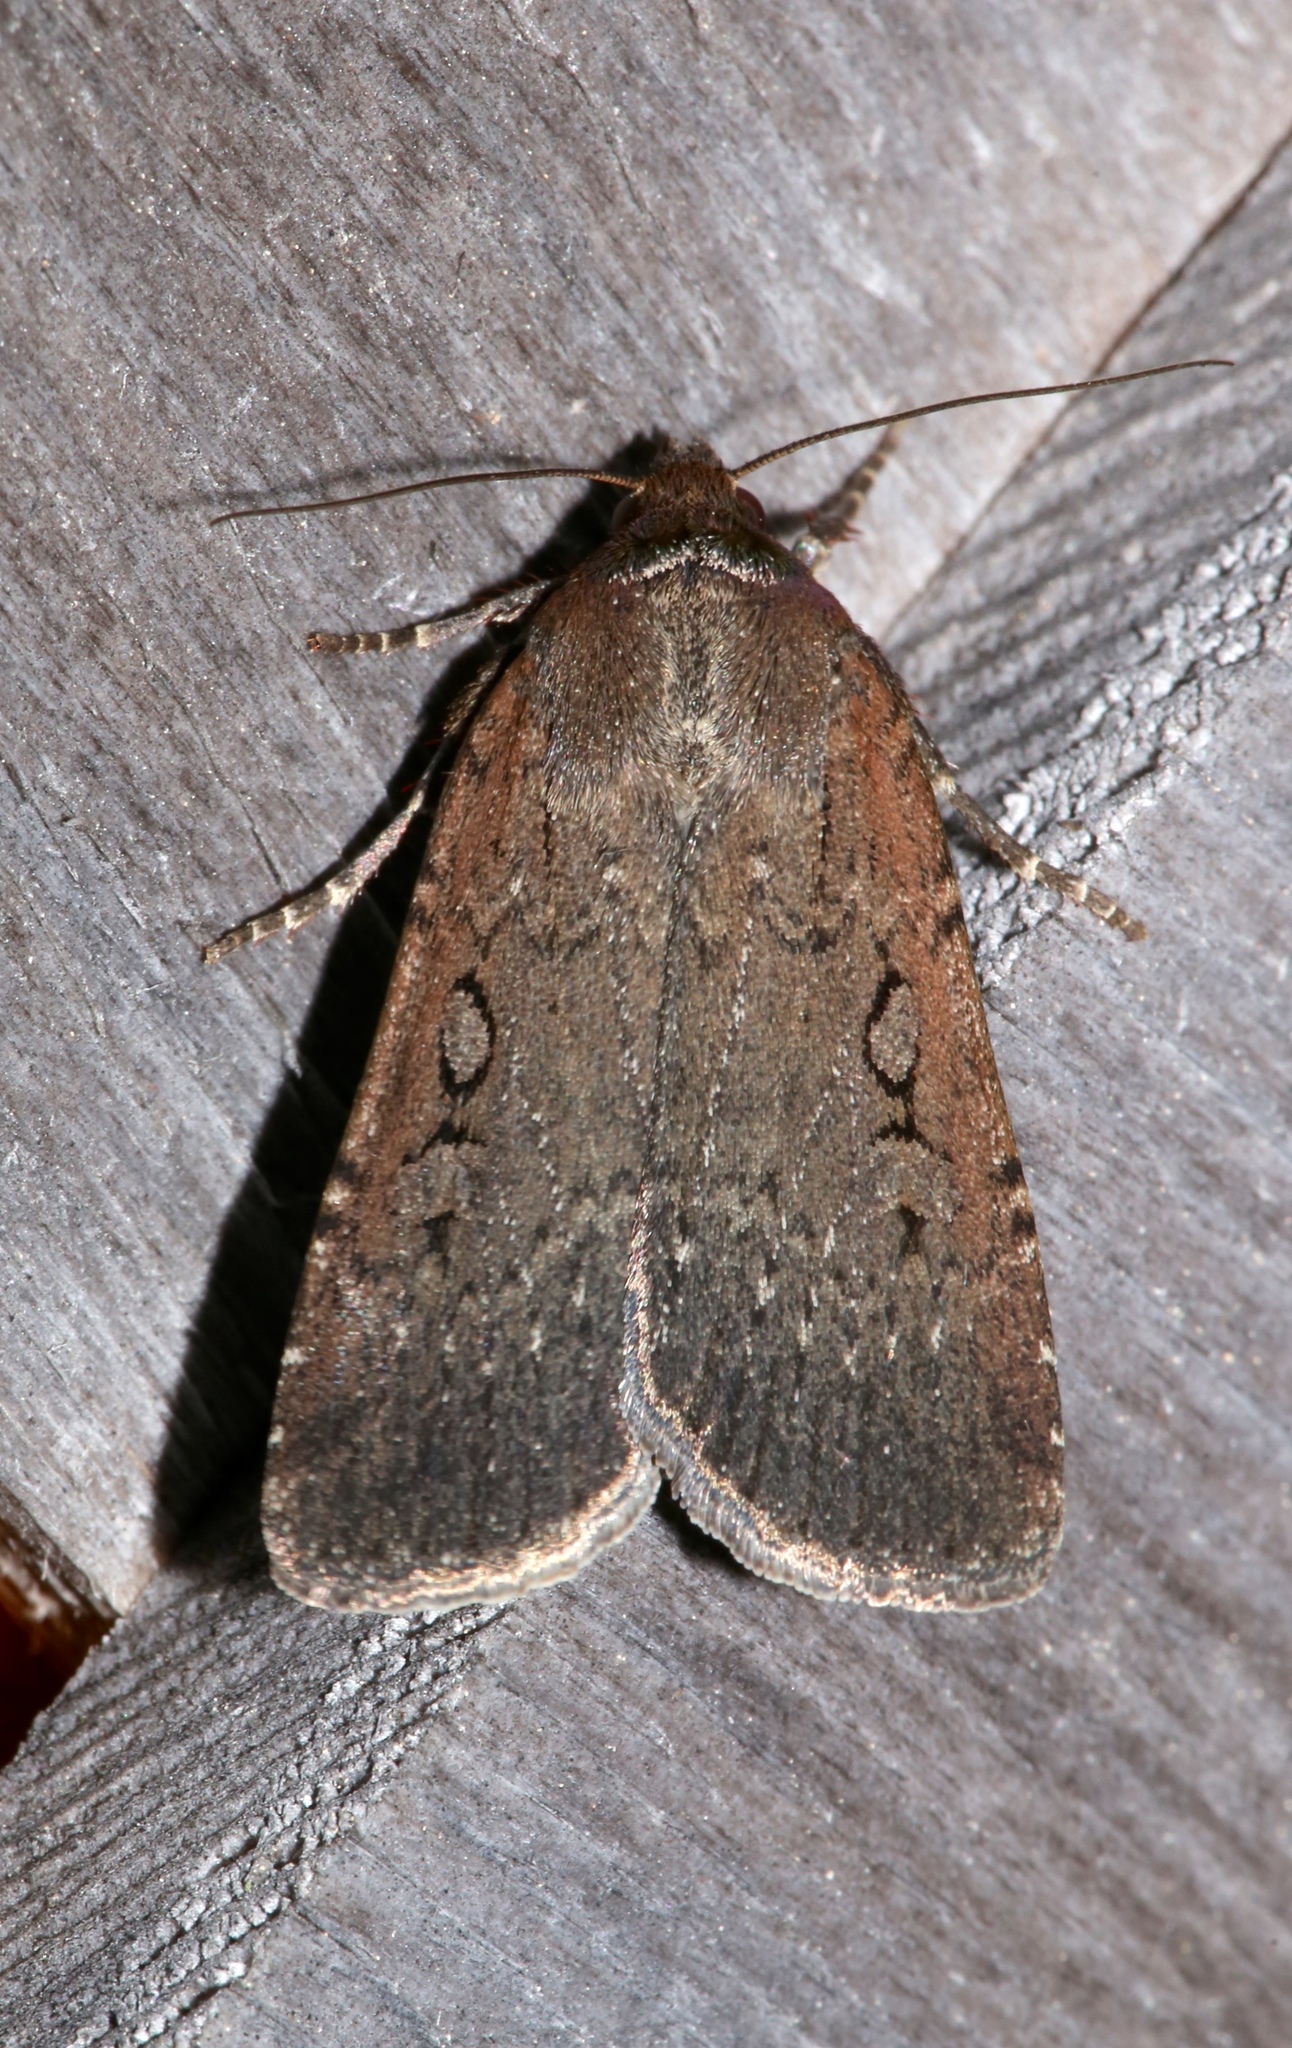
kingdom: Animalia
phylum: Arthropoda
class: Insecta
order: Lepidoptera
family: Noctuidae
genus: Spaelotis
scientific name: Spaelotis clandestina
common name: Clandestine dart
